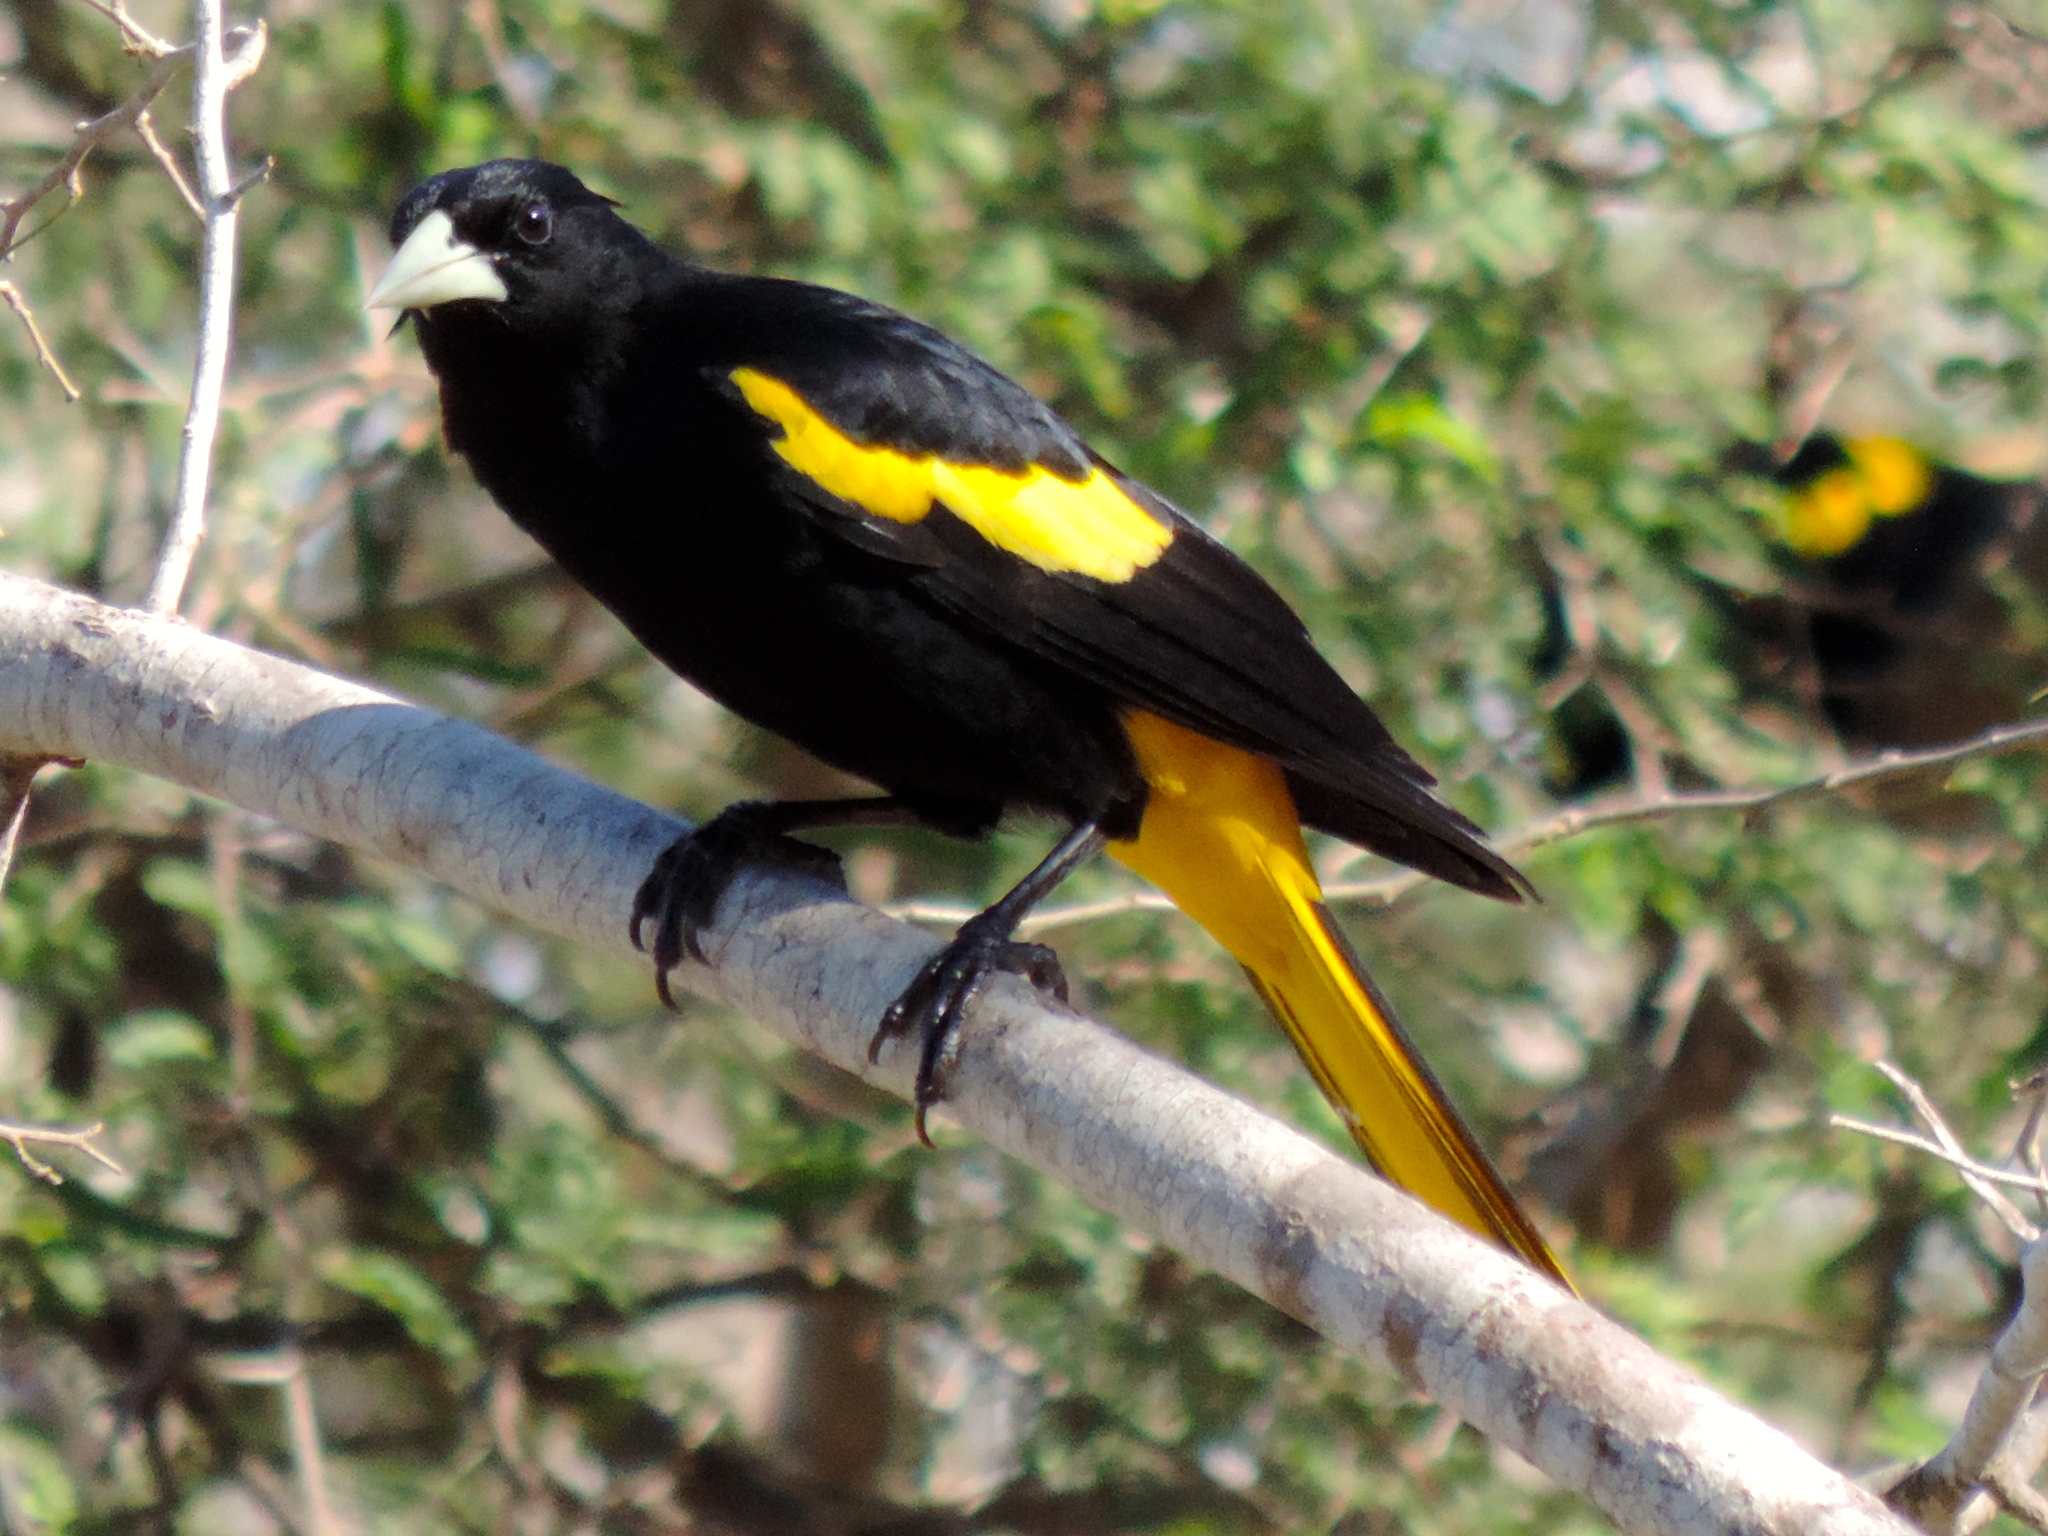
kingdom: Animalia
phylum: Chordata
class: Aves
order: Passeriformes
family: Icteridae
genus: Cacicus
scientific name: Cacicus melanicterus
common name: Yellow-winged cacique
